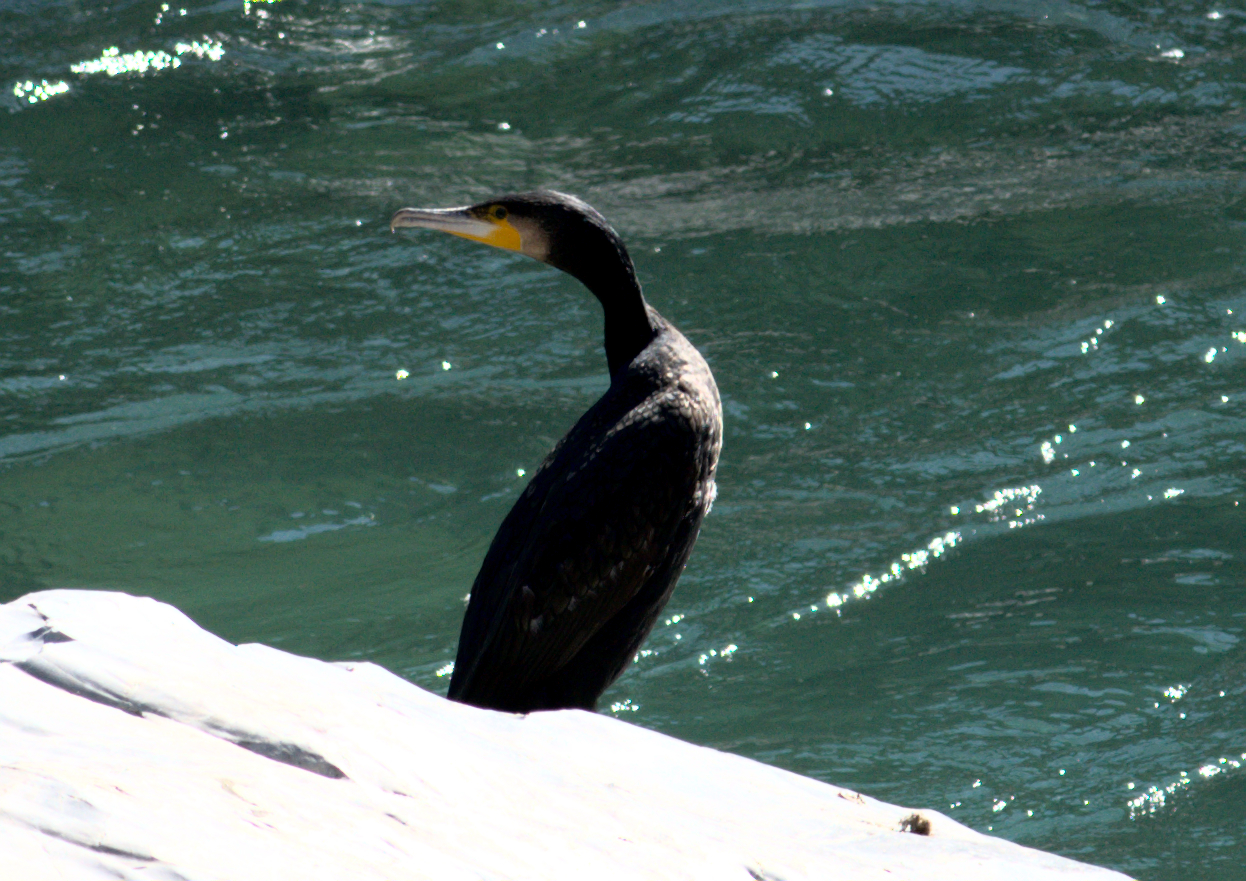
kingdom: Animalia
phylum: Chordata
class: Aves
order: Suliformes
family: Phalacrocoracidae
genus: Phalacrocorax
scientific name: Phalacrocorax carbo
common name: Great cormorant
